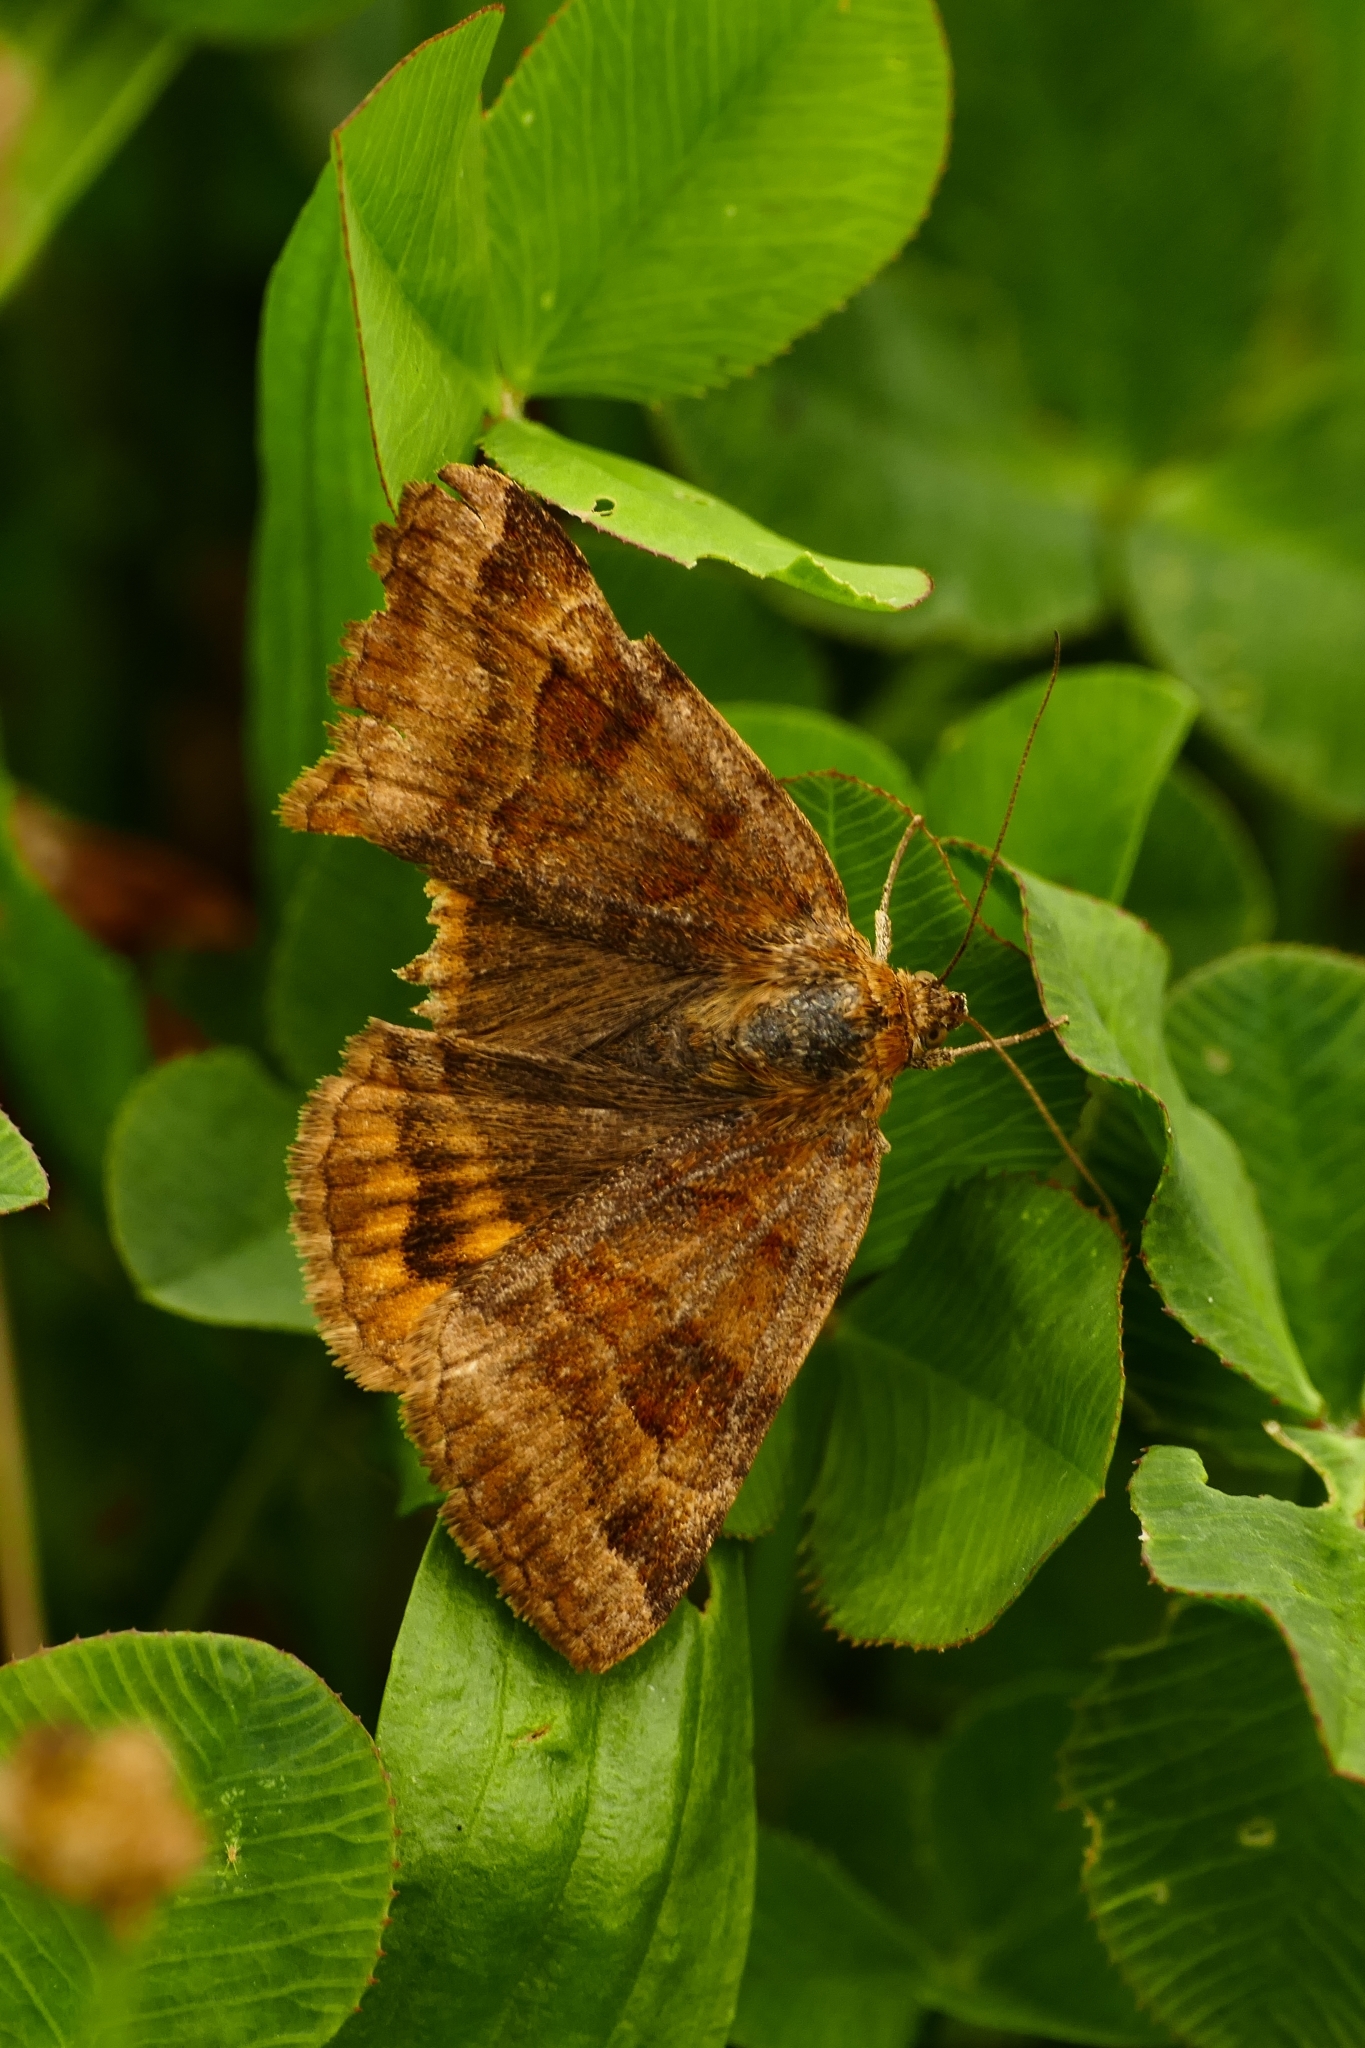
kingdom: Animalia
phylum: Arthropoda
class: Insecta
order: Lepidoptera
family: Erebidae
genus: Euclidia
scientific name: Euclidia glyphica
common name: Burnet companion
